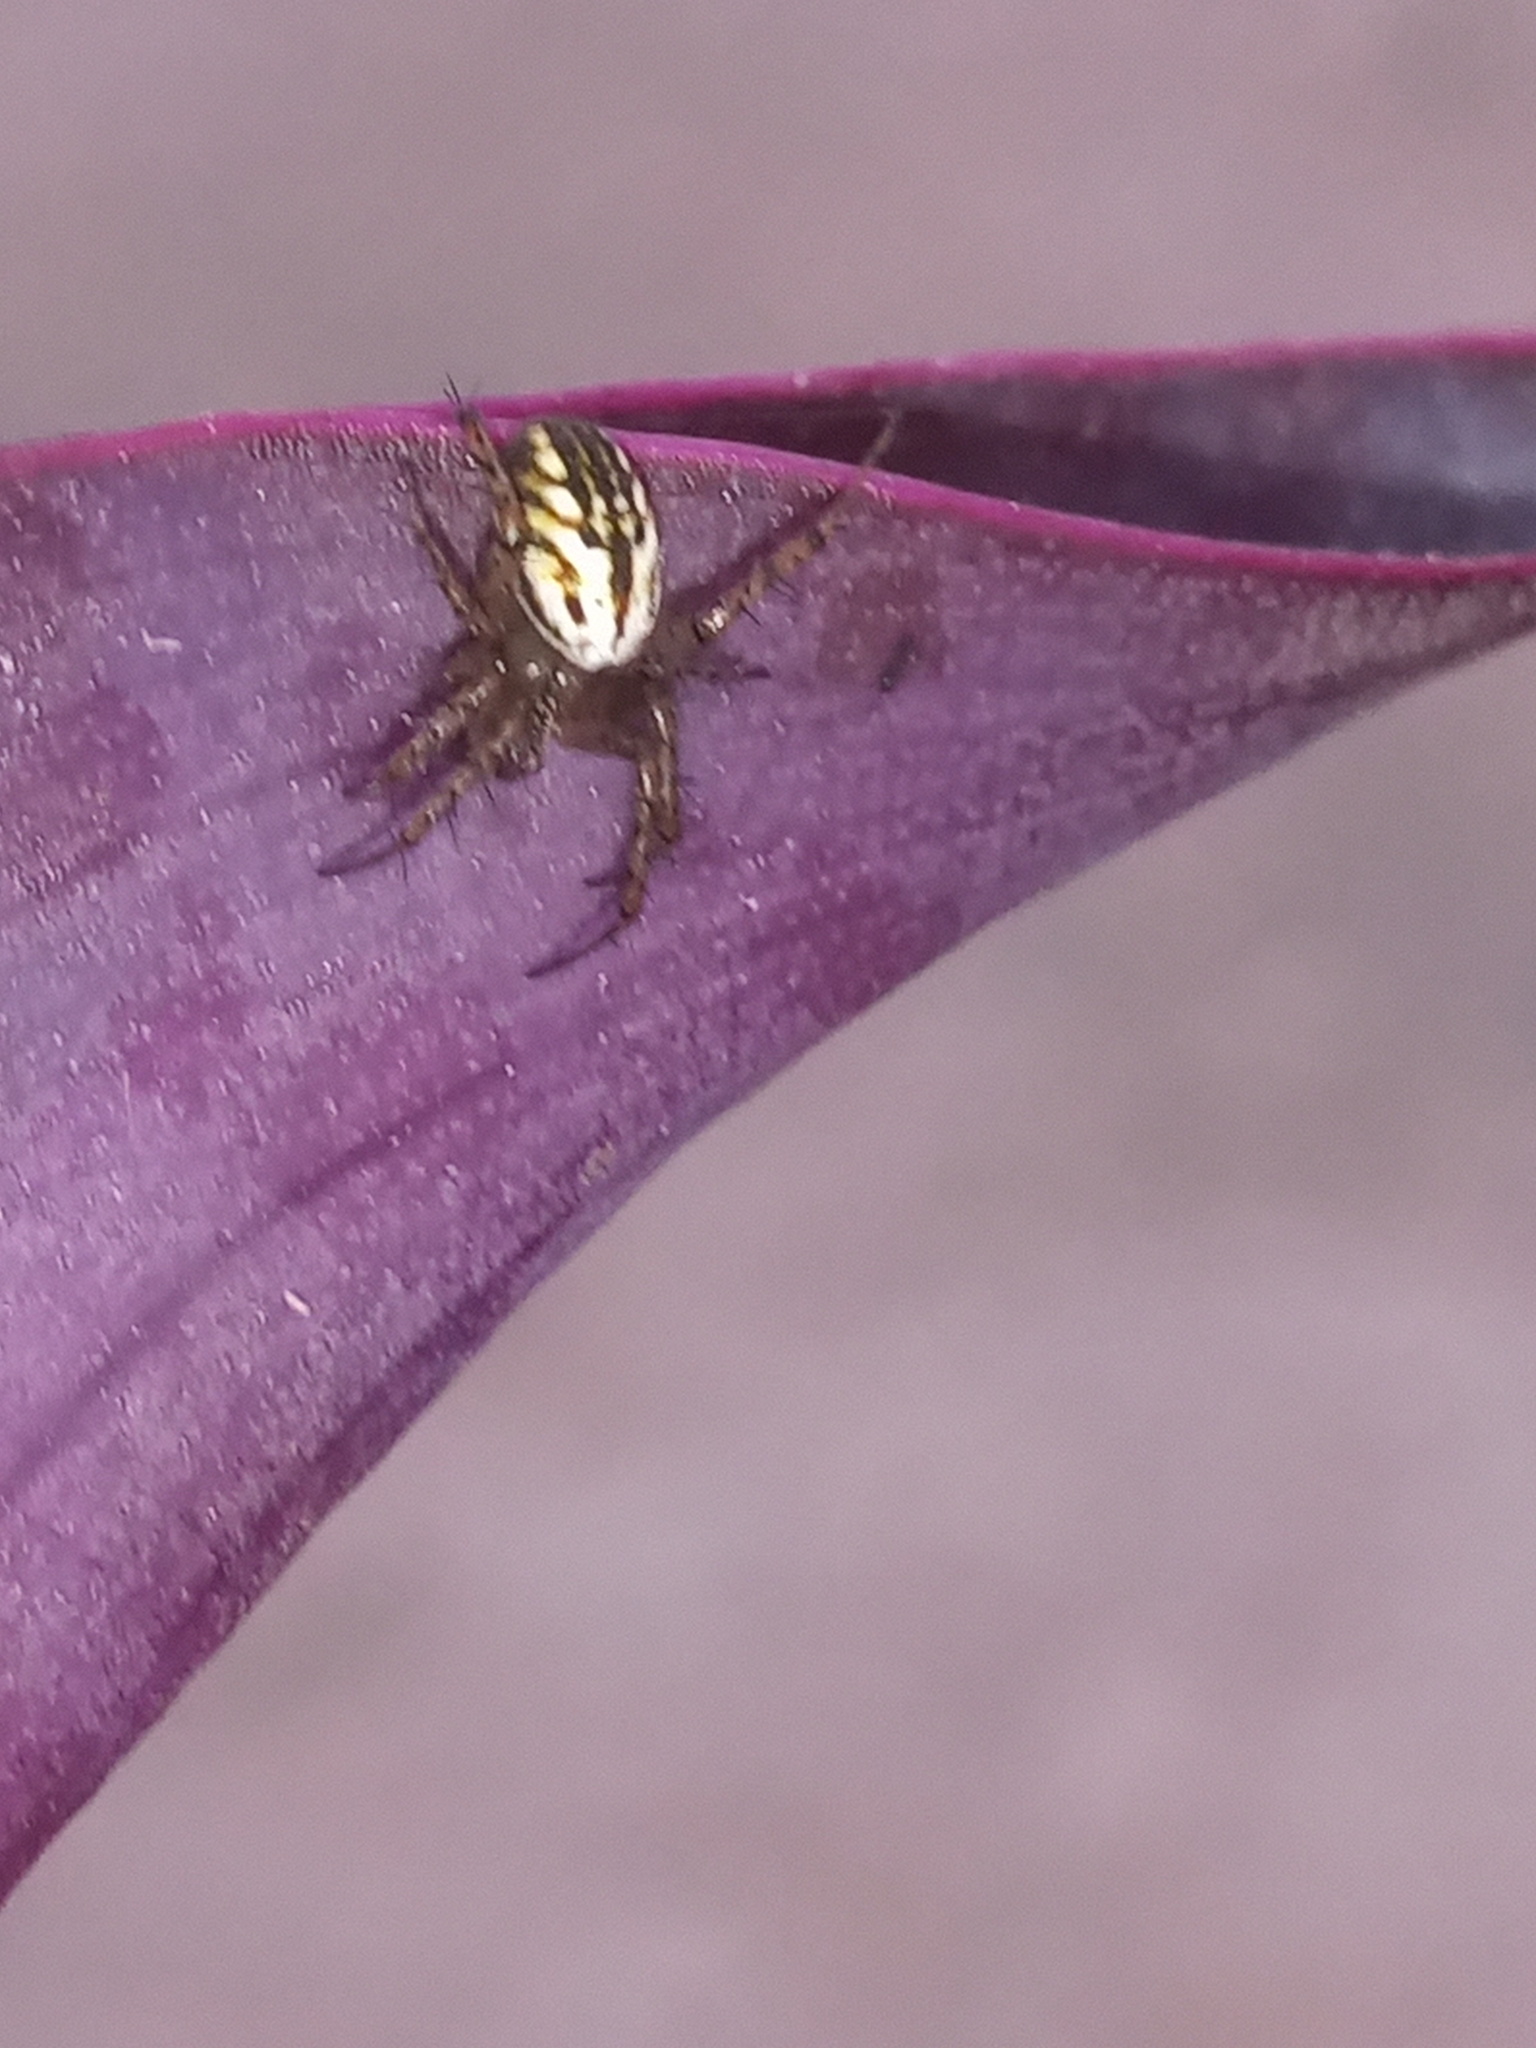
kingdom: Animalia
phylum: Arthropoda
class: Arachnida
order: Araneae
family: Araneidae
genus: Mangora
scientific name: Mangora gibberosa
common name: Lined orbweaver
